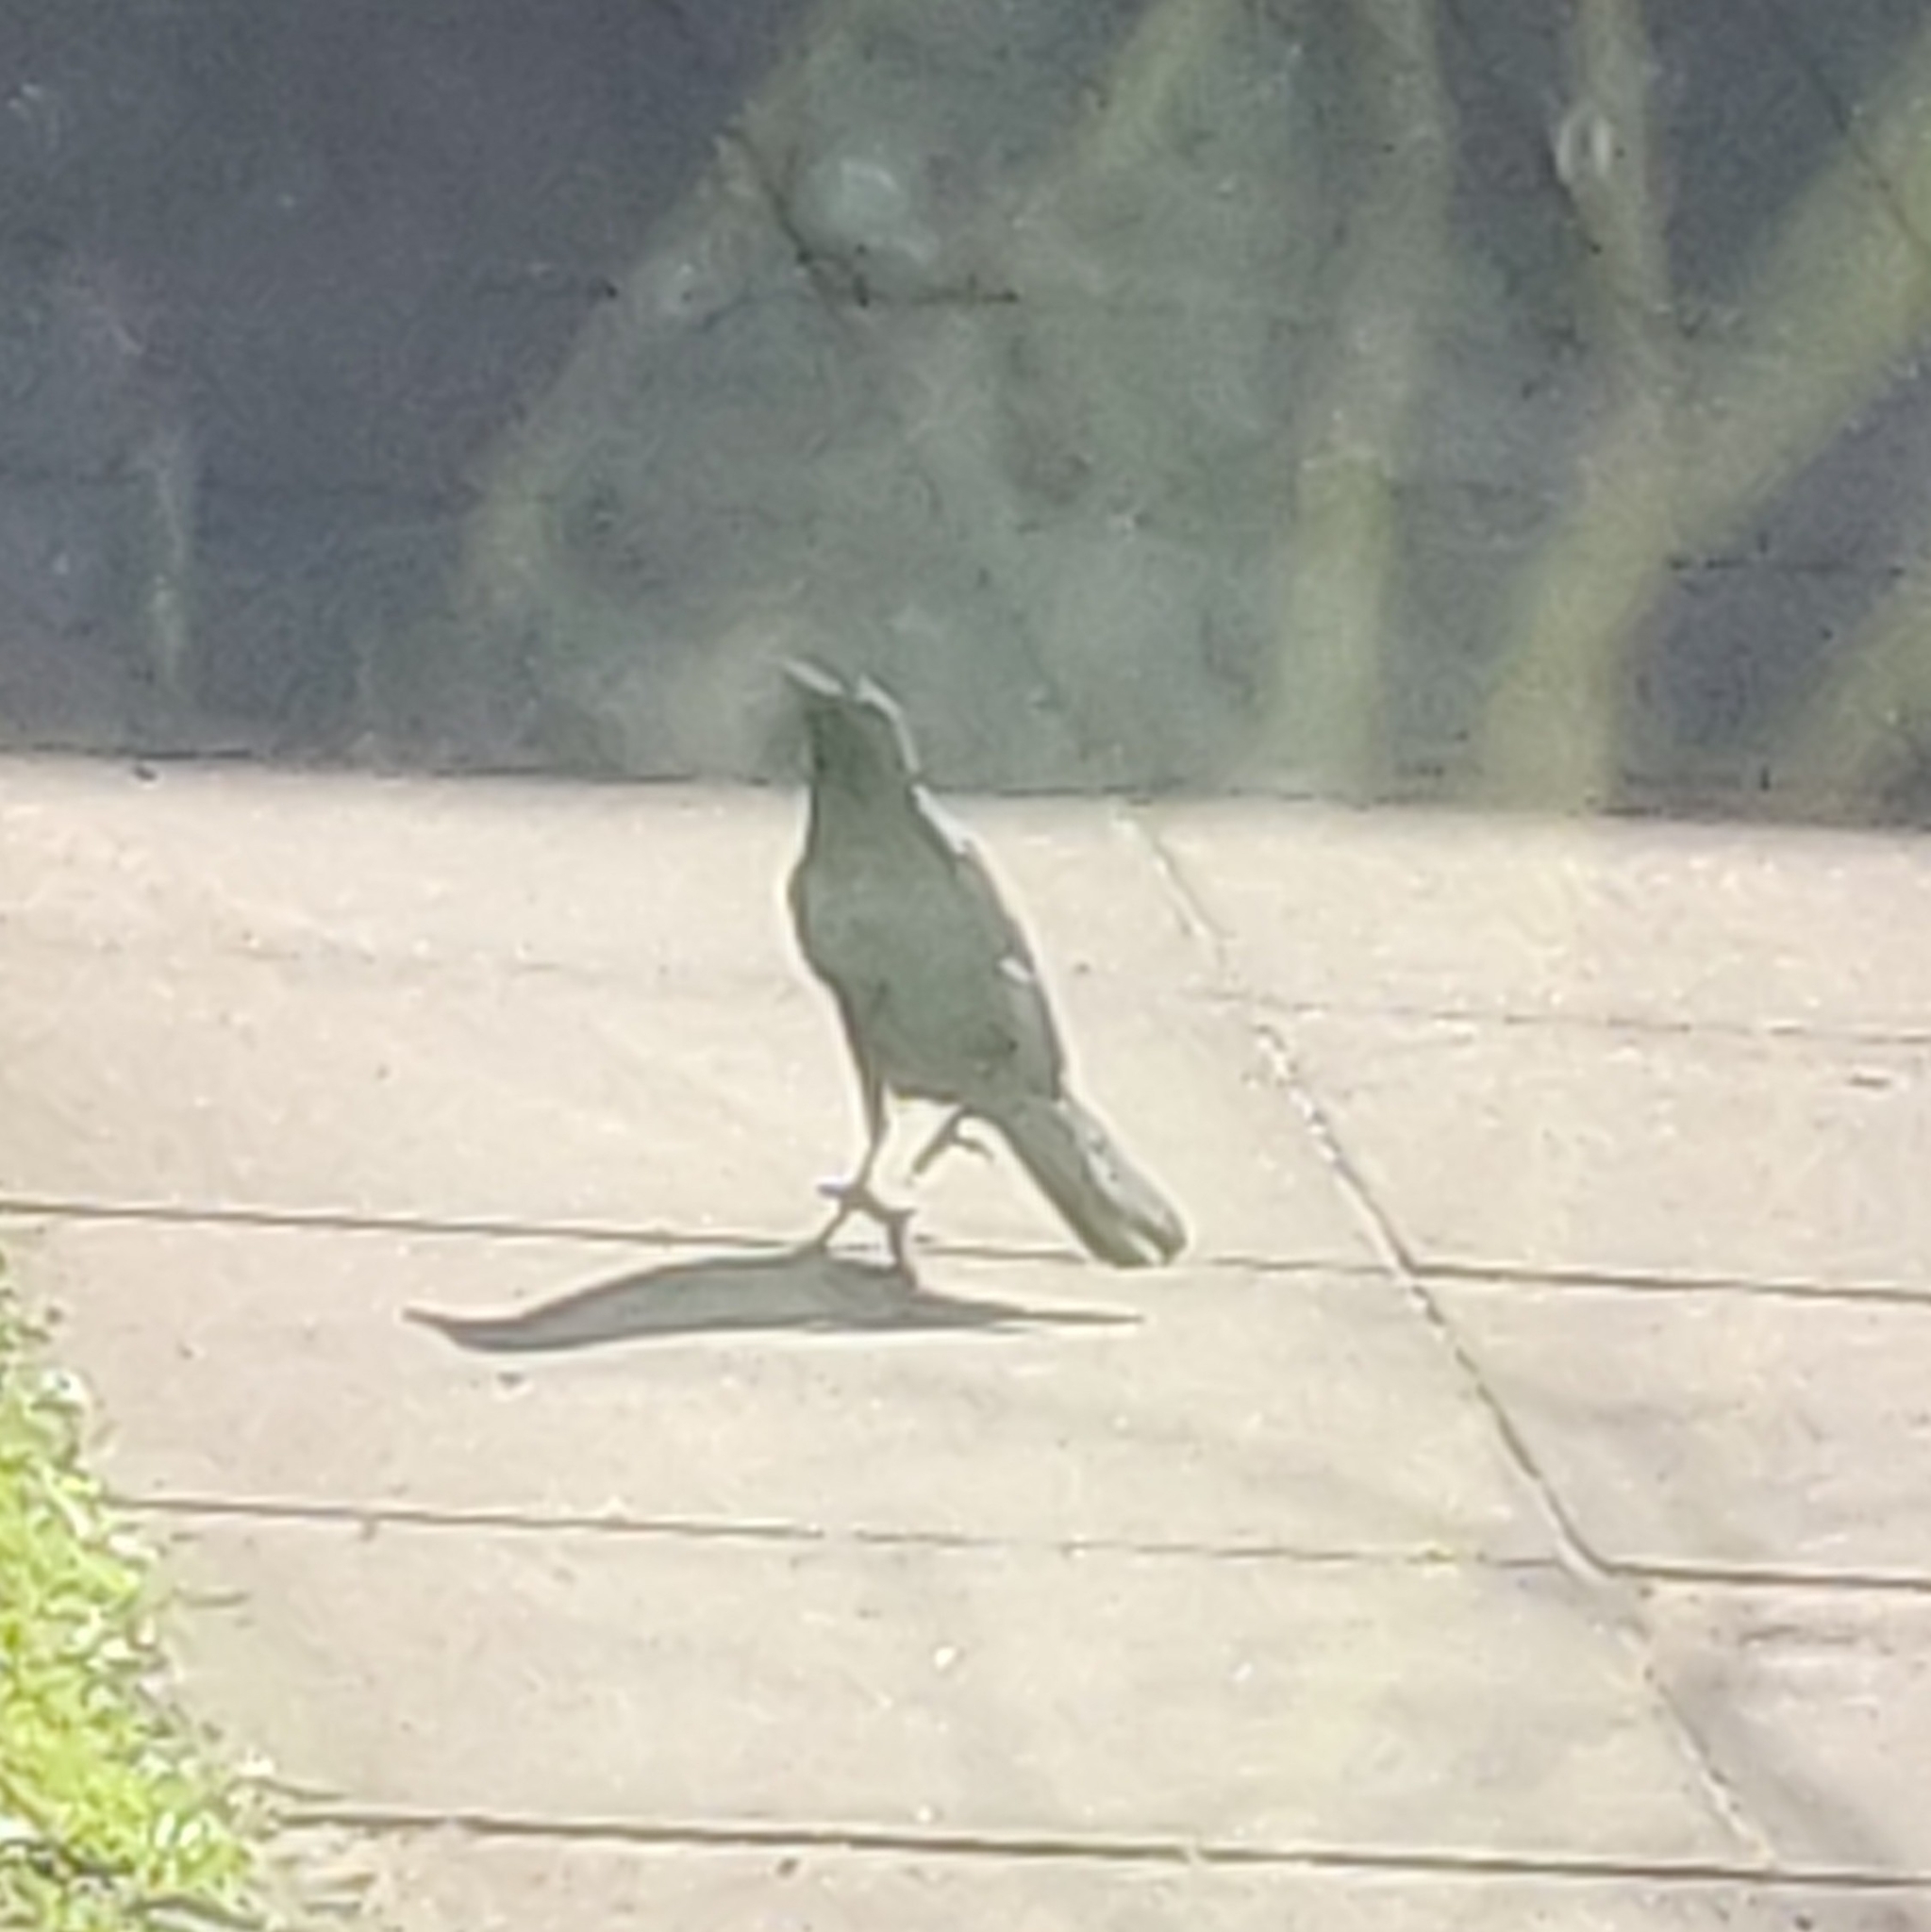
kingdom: Animalia
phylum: Chordata
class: Aves
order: Passeriformes
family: Corvidae
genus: Corvus
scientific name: Corvus corone
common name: Carrion crow
